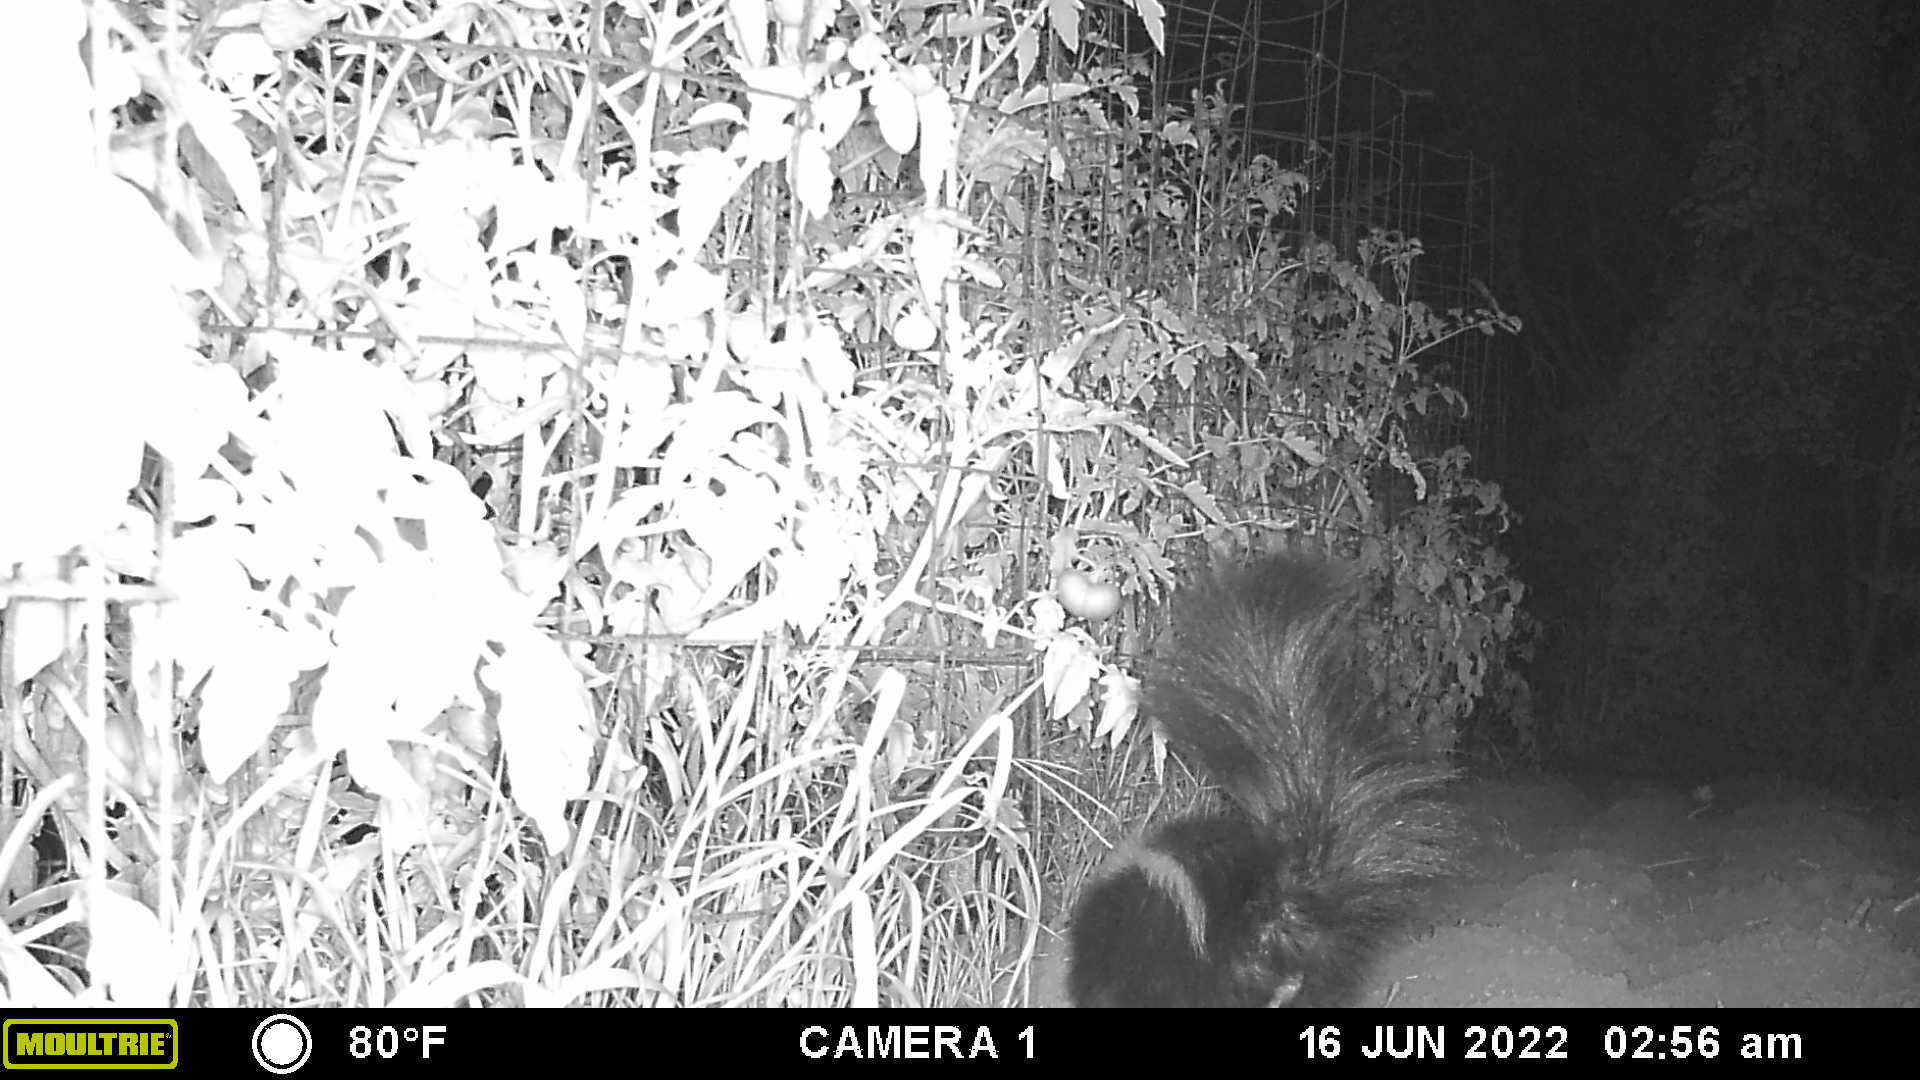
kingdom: Animalia
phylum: Chordata
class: Mammalia
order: Carnivora
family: Mephitidae
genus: Mephitis
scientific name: Mephitis mephitis
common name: Striped skunk
